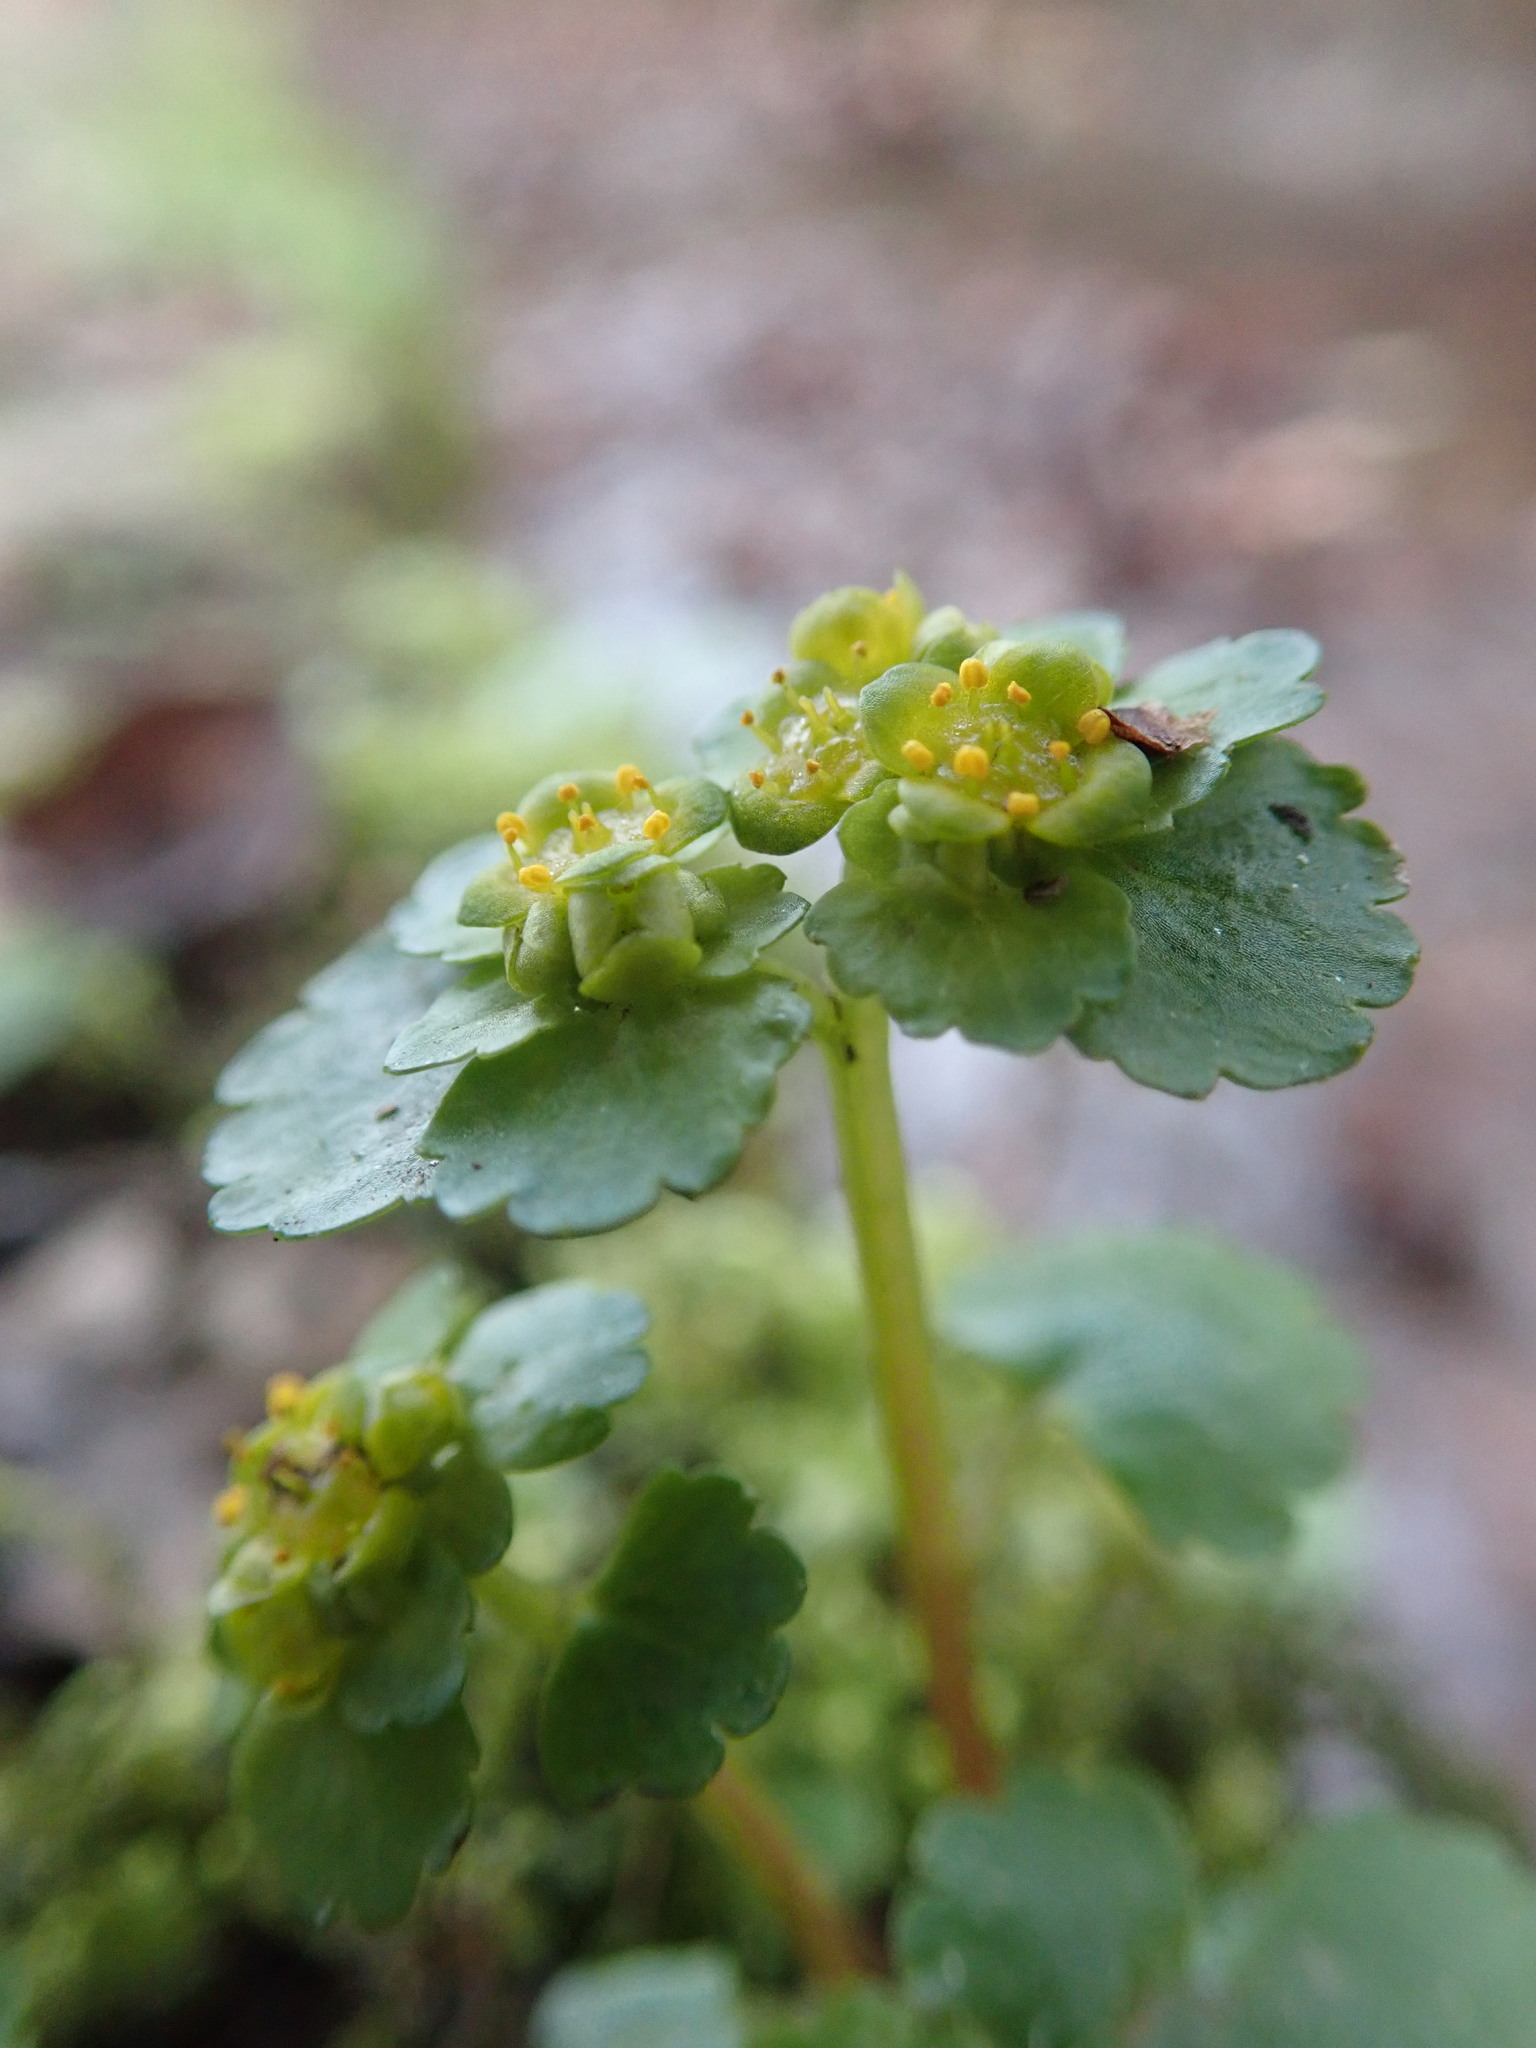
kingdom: Plantae
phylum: Tracheophyta
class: Magnoliopsida
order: Saxifragales
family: Saxifragaceae
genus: Chrysosplenium
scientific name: Chrysosplenium alternifolium
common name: Alternate-leaved golden-saxifrage
